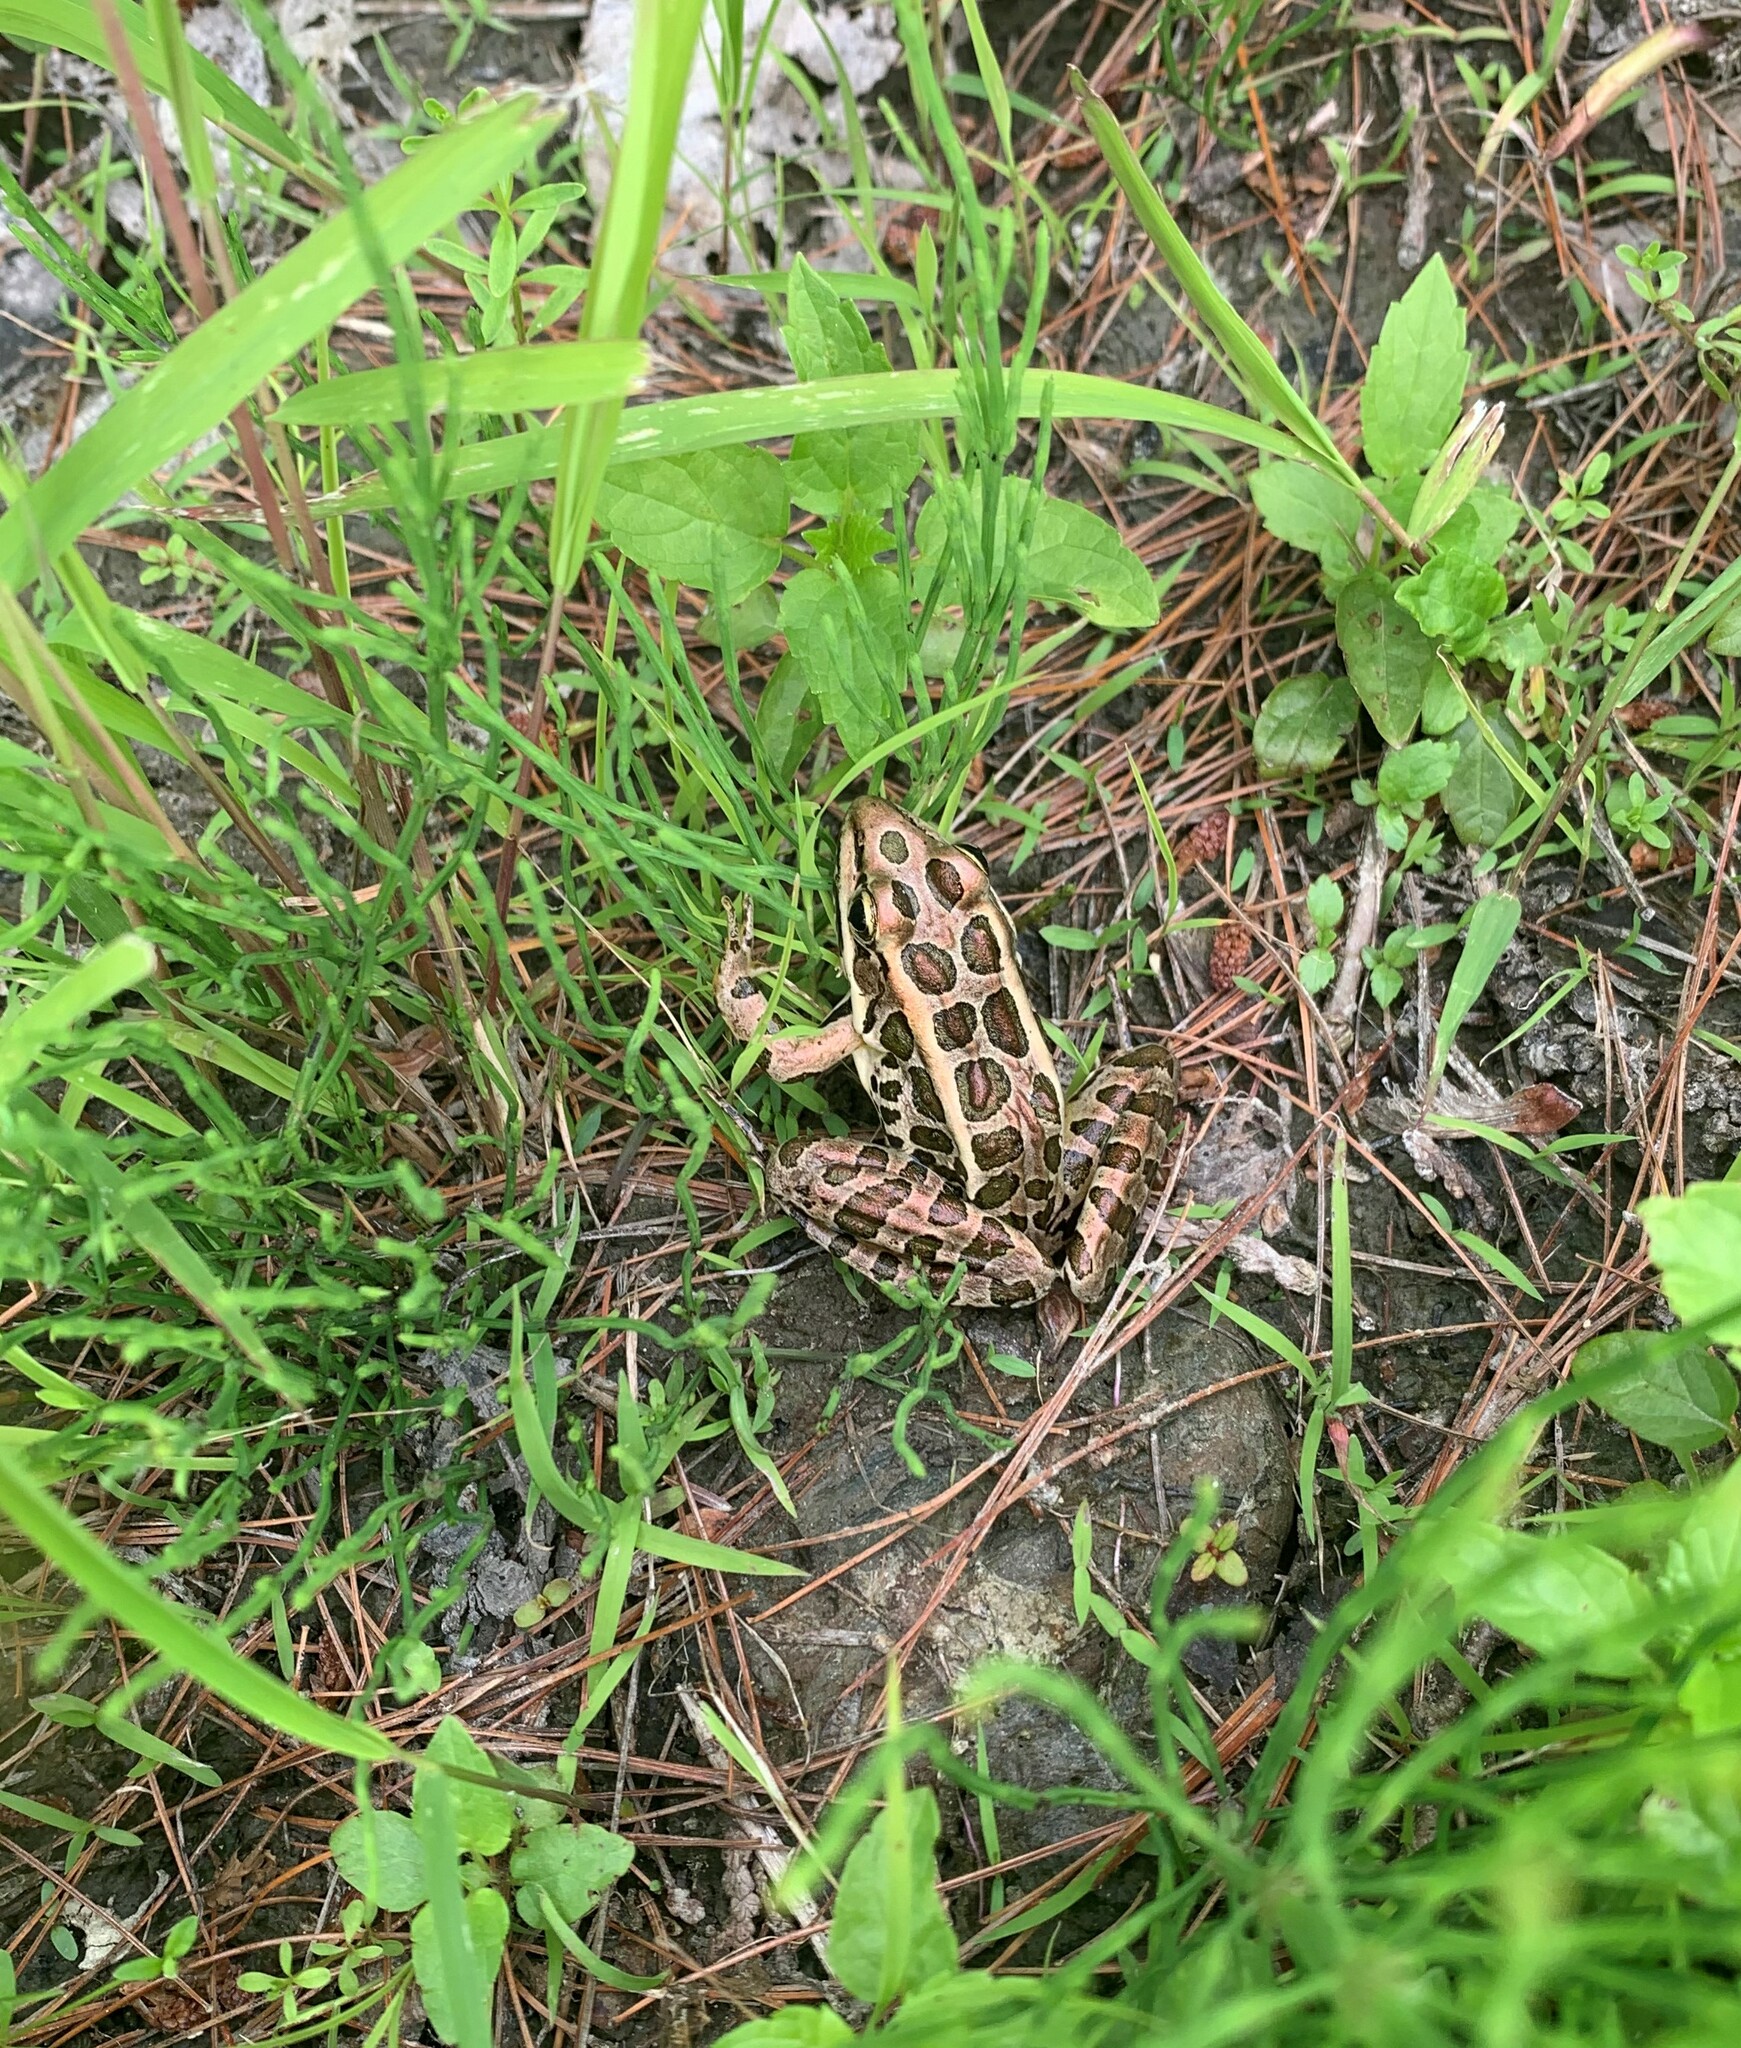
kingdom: Animalia
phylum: Chordata
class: Amphibia
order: Anura
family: Ranidae
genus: Lithobates
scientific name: Lithobates palustris
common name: Pickerel frog
